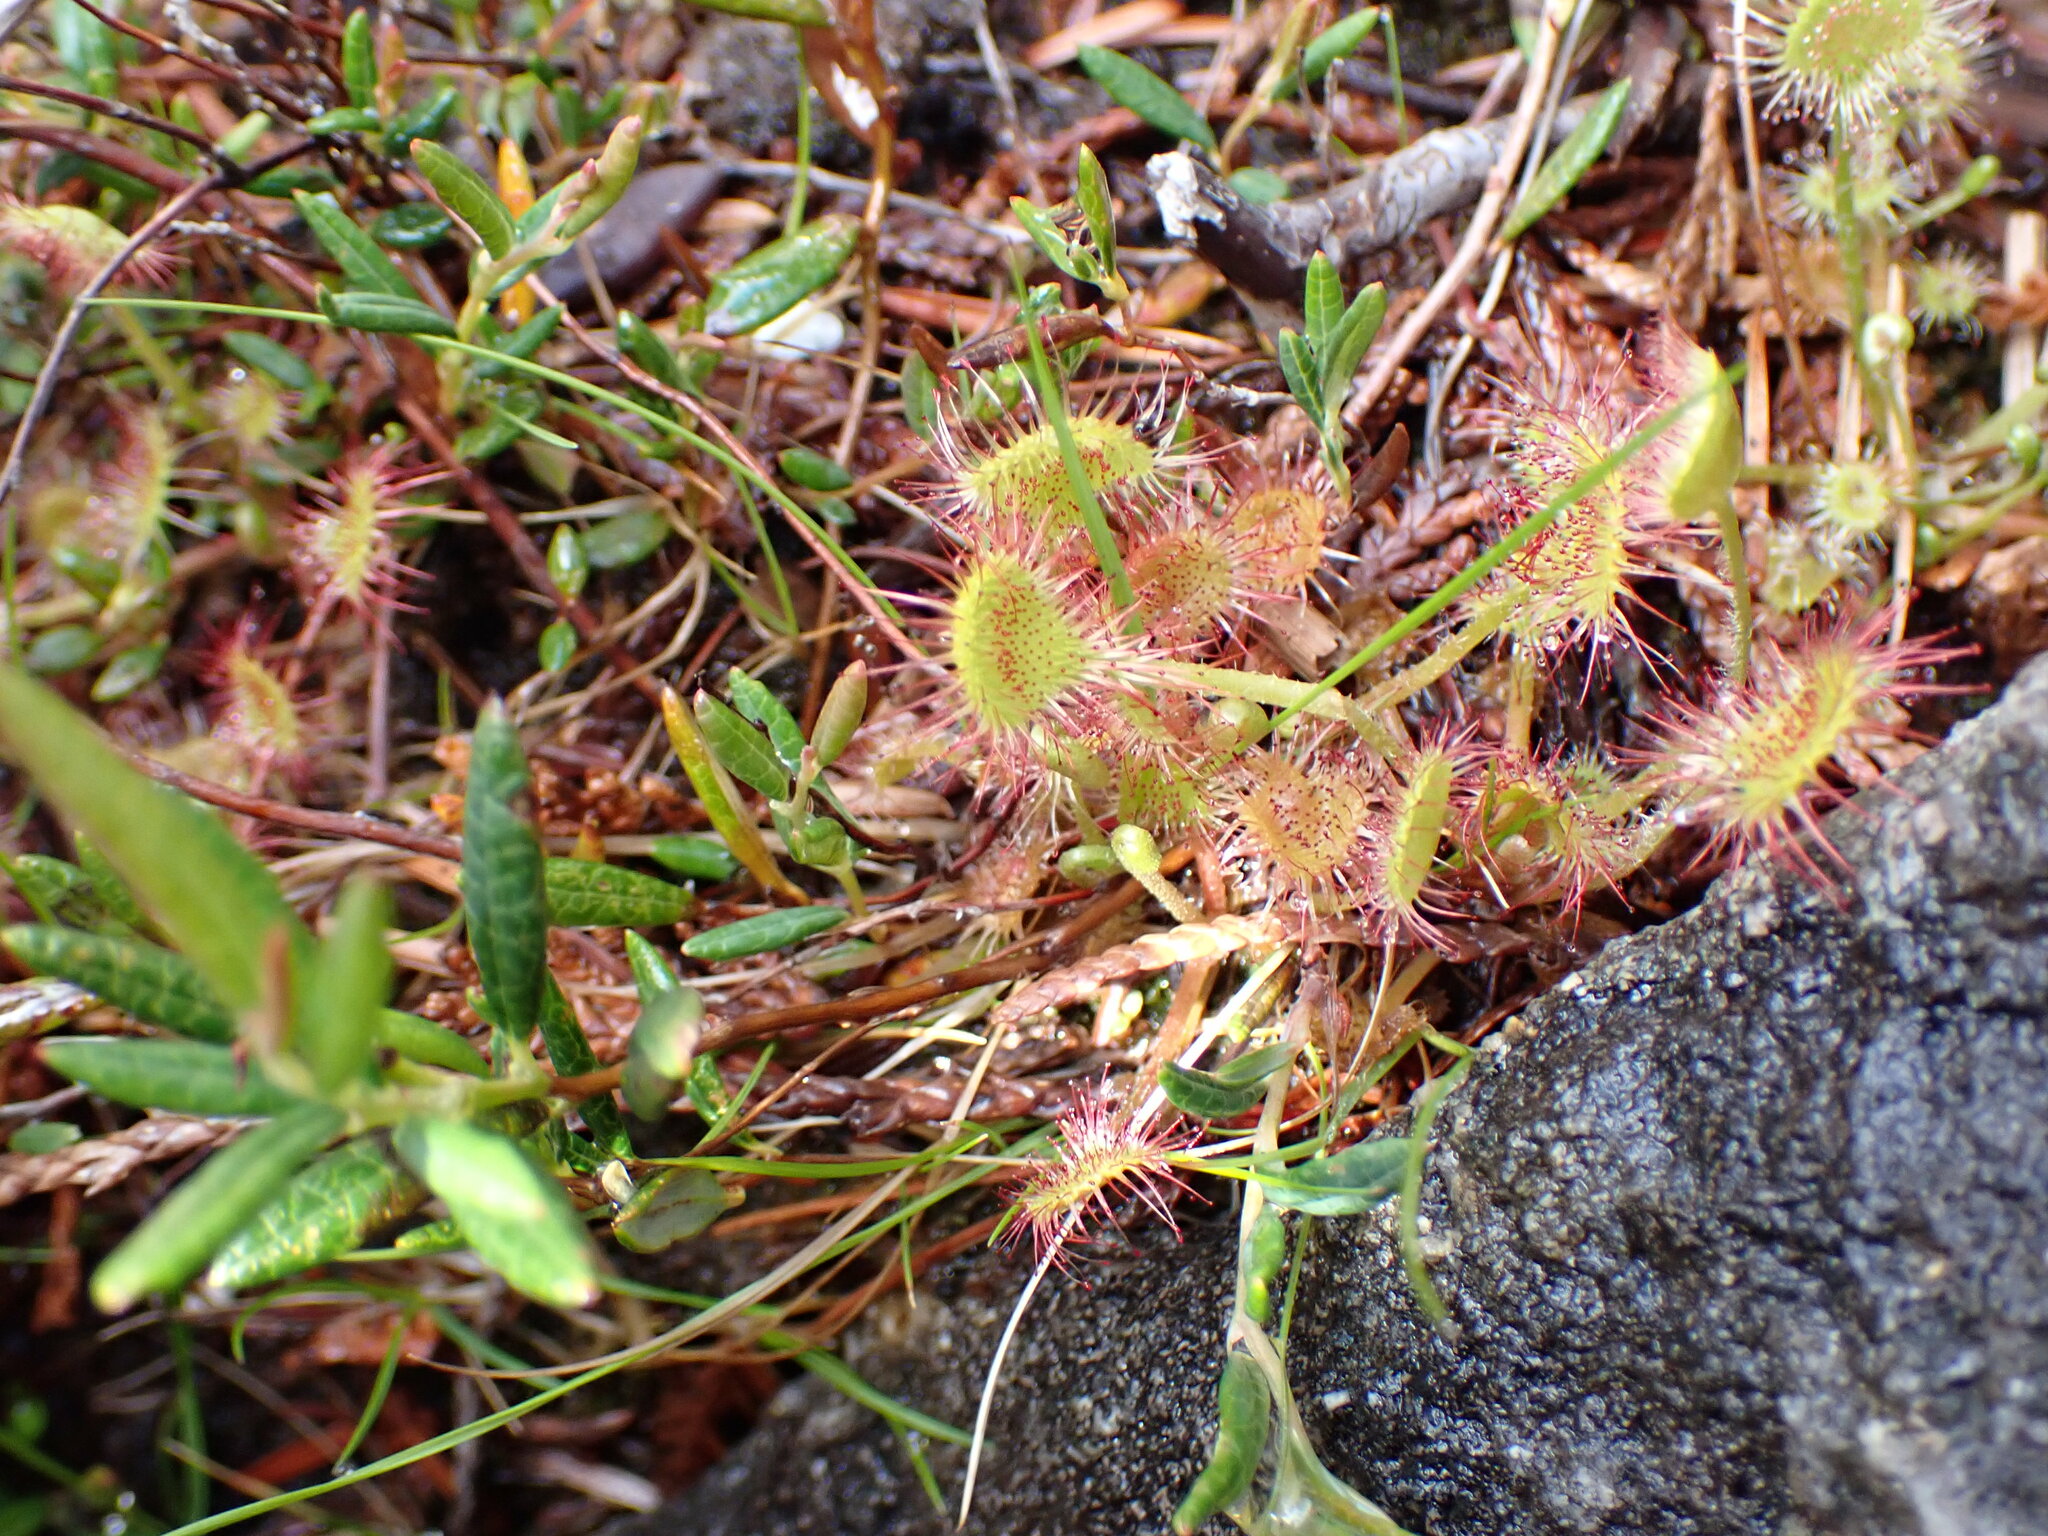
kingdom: Plantae
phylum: Tracheophyta
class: Magnoliopsida
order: Caryophyllales
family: Droseraceae
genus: Drosera
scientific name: Drosera rotundifolia
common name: Round-leaved sundew
